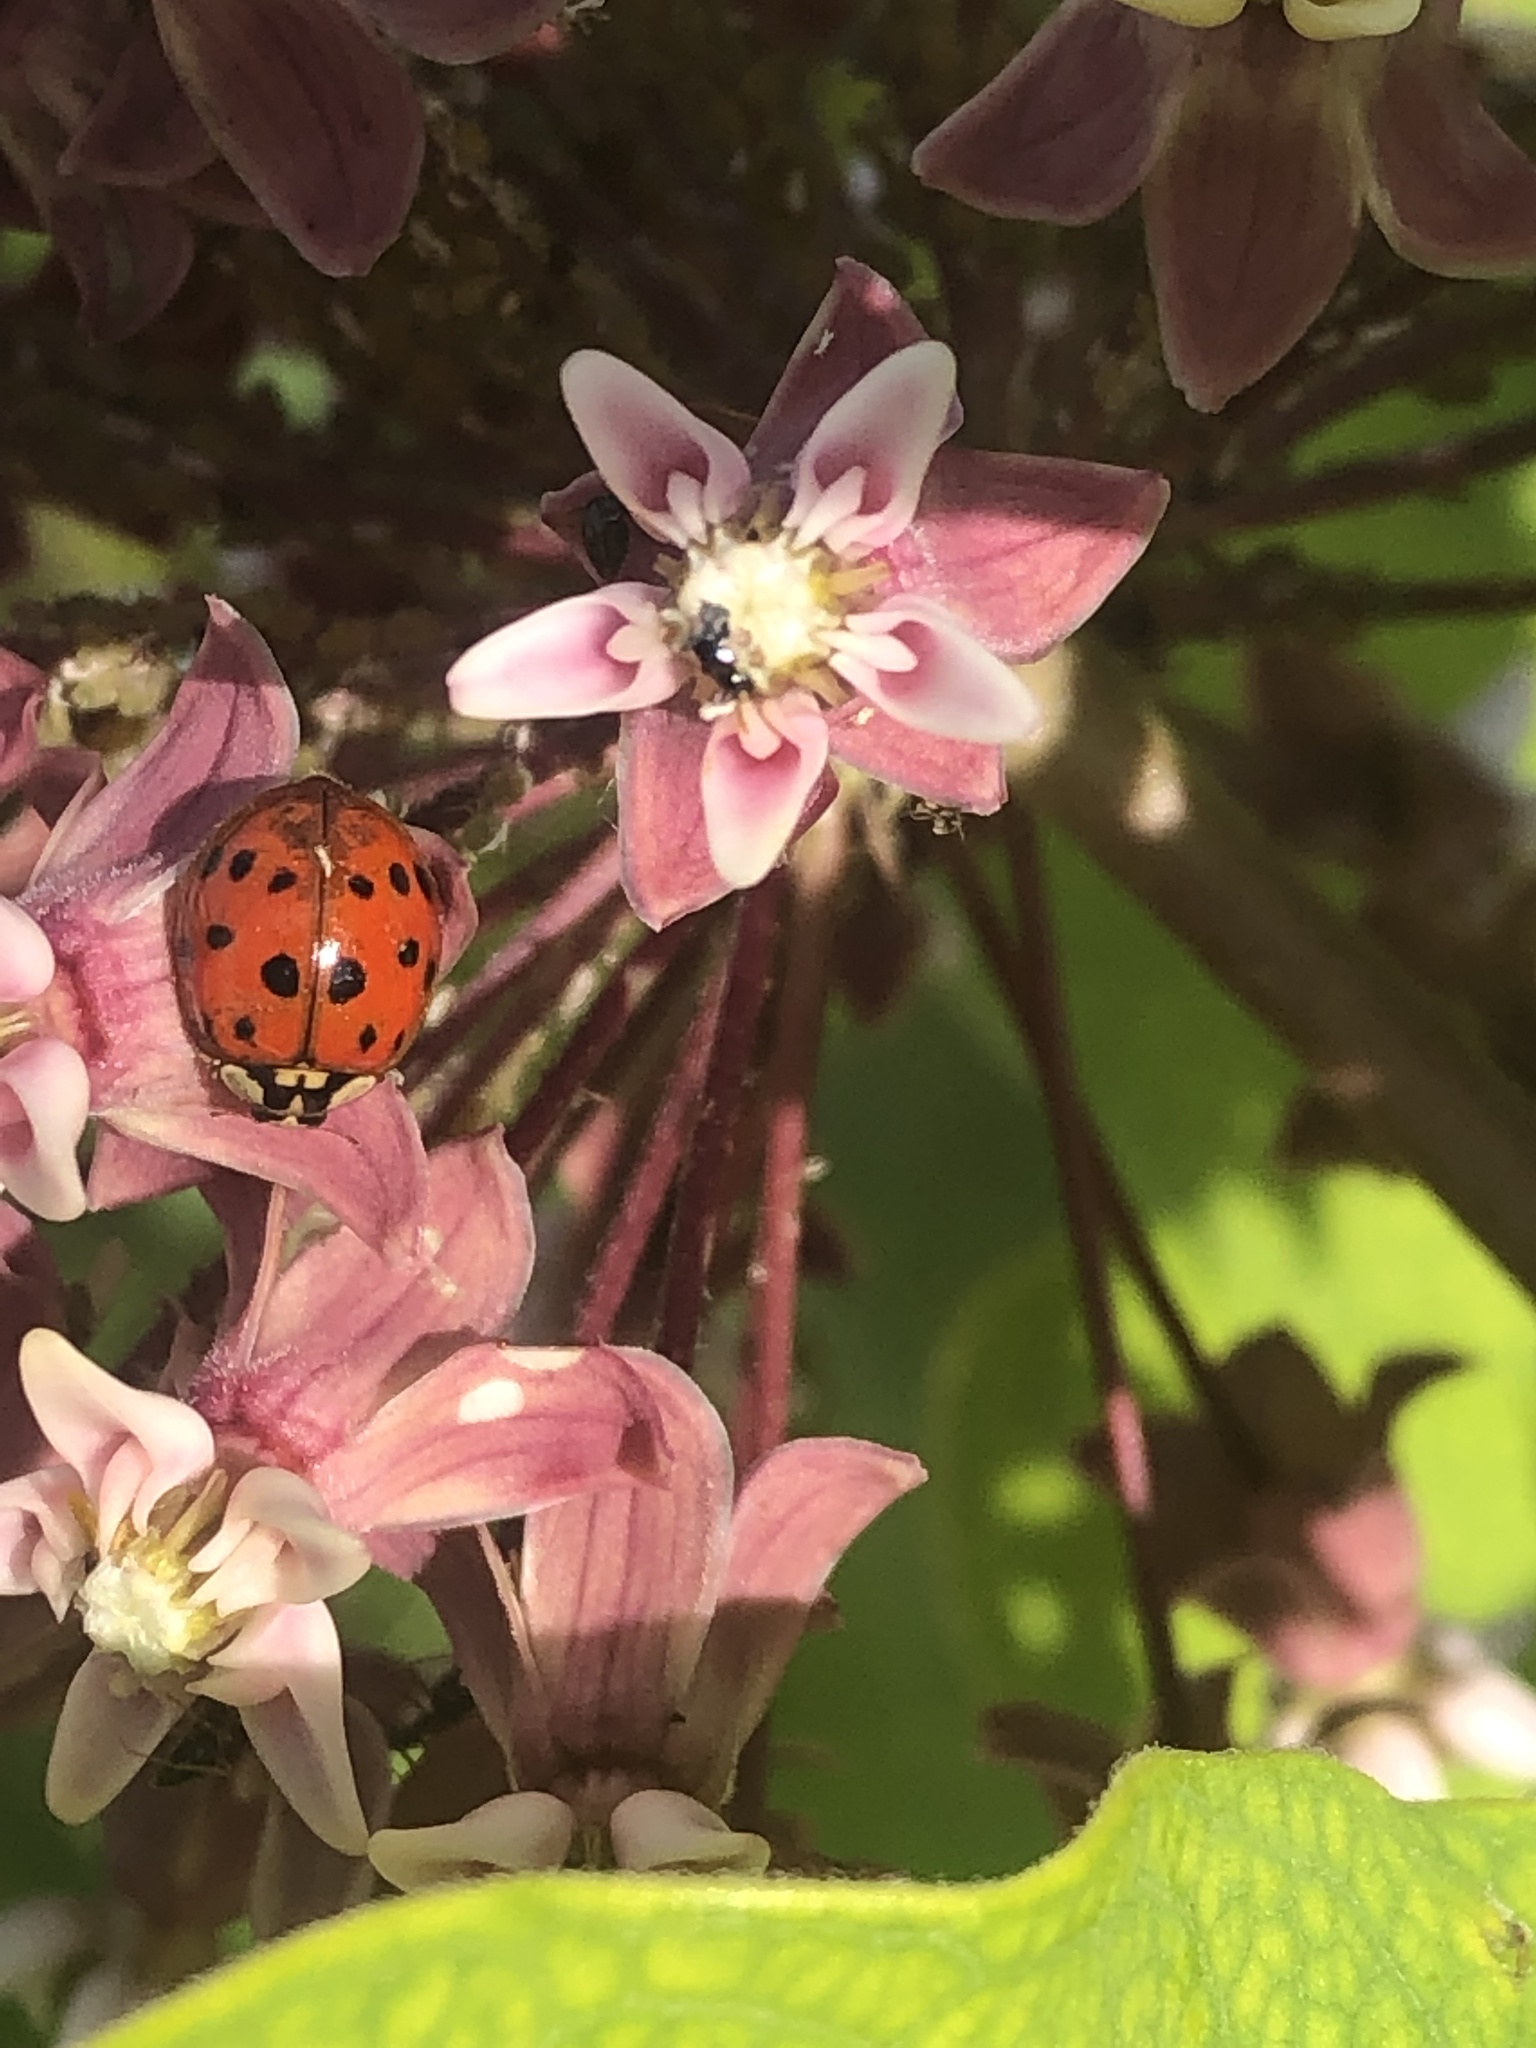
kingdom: Animalia
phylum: Arthropoda
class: Insecta
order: Coleoptera
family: Coccinellidae
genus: Harmonia
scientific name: Harmonia axyridis
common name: Harlequin ladybird
